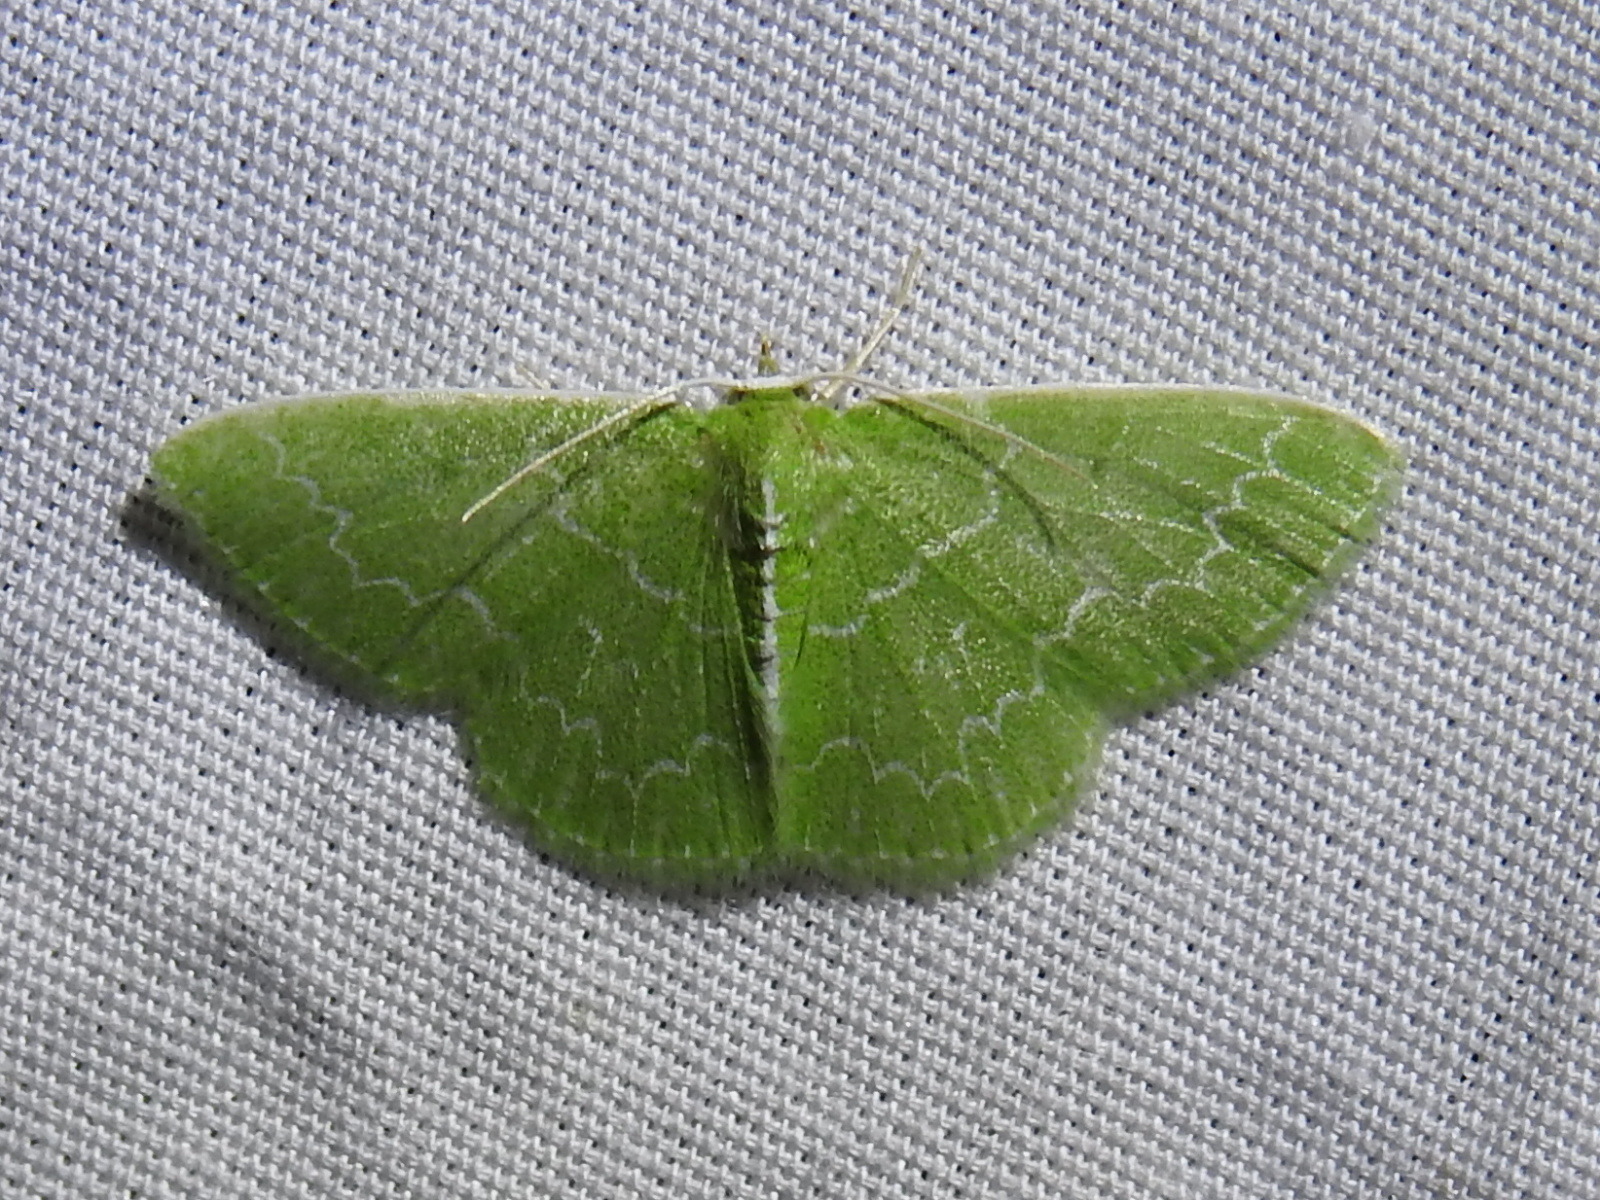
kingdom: Animalia
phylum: Arthropoda
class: Insecta
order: Lepidoptera
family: Geometridae
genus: Synchlora
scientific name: Synchlora frondaria
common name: Southern emerald
